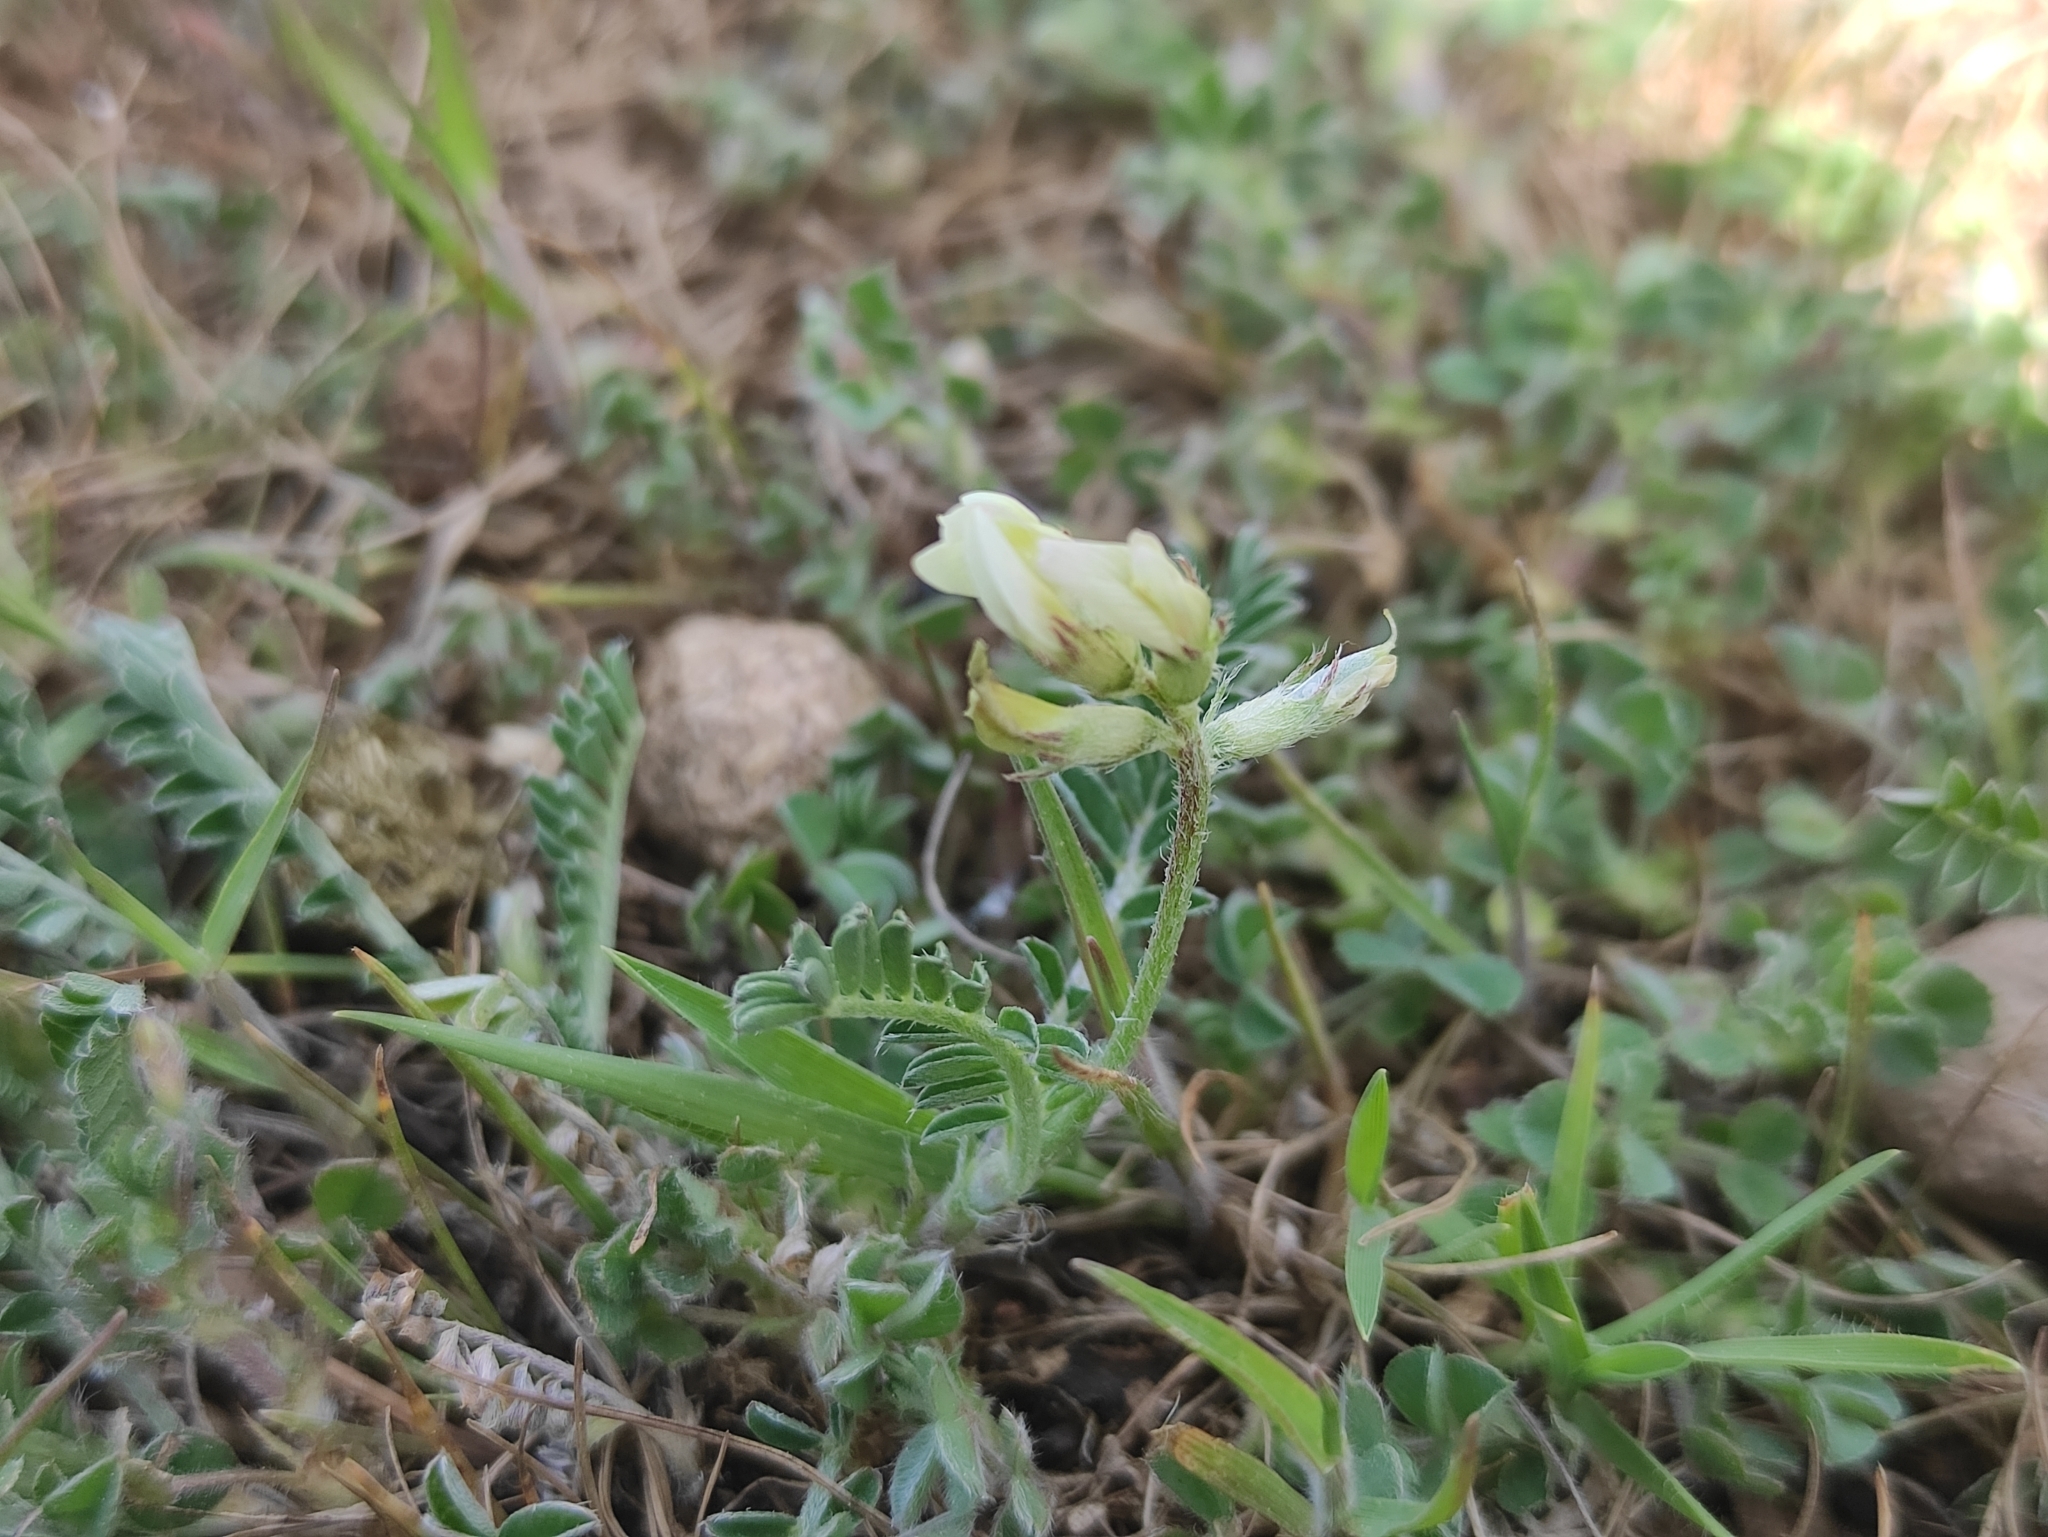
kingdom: Plantae
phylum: Tracheophyta
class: Magnoliopsida
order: Fabales
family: Fabaceae
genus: Astragalus
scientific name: Astragalus hamosus
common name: European milkvetch
